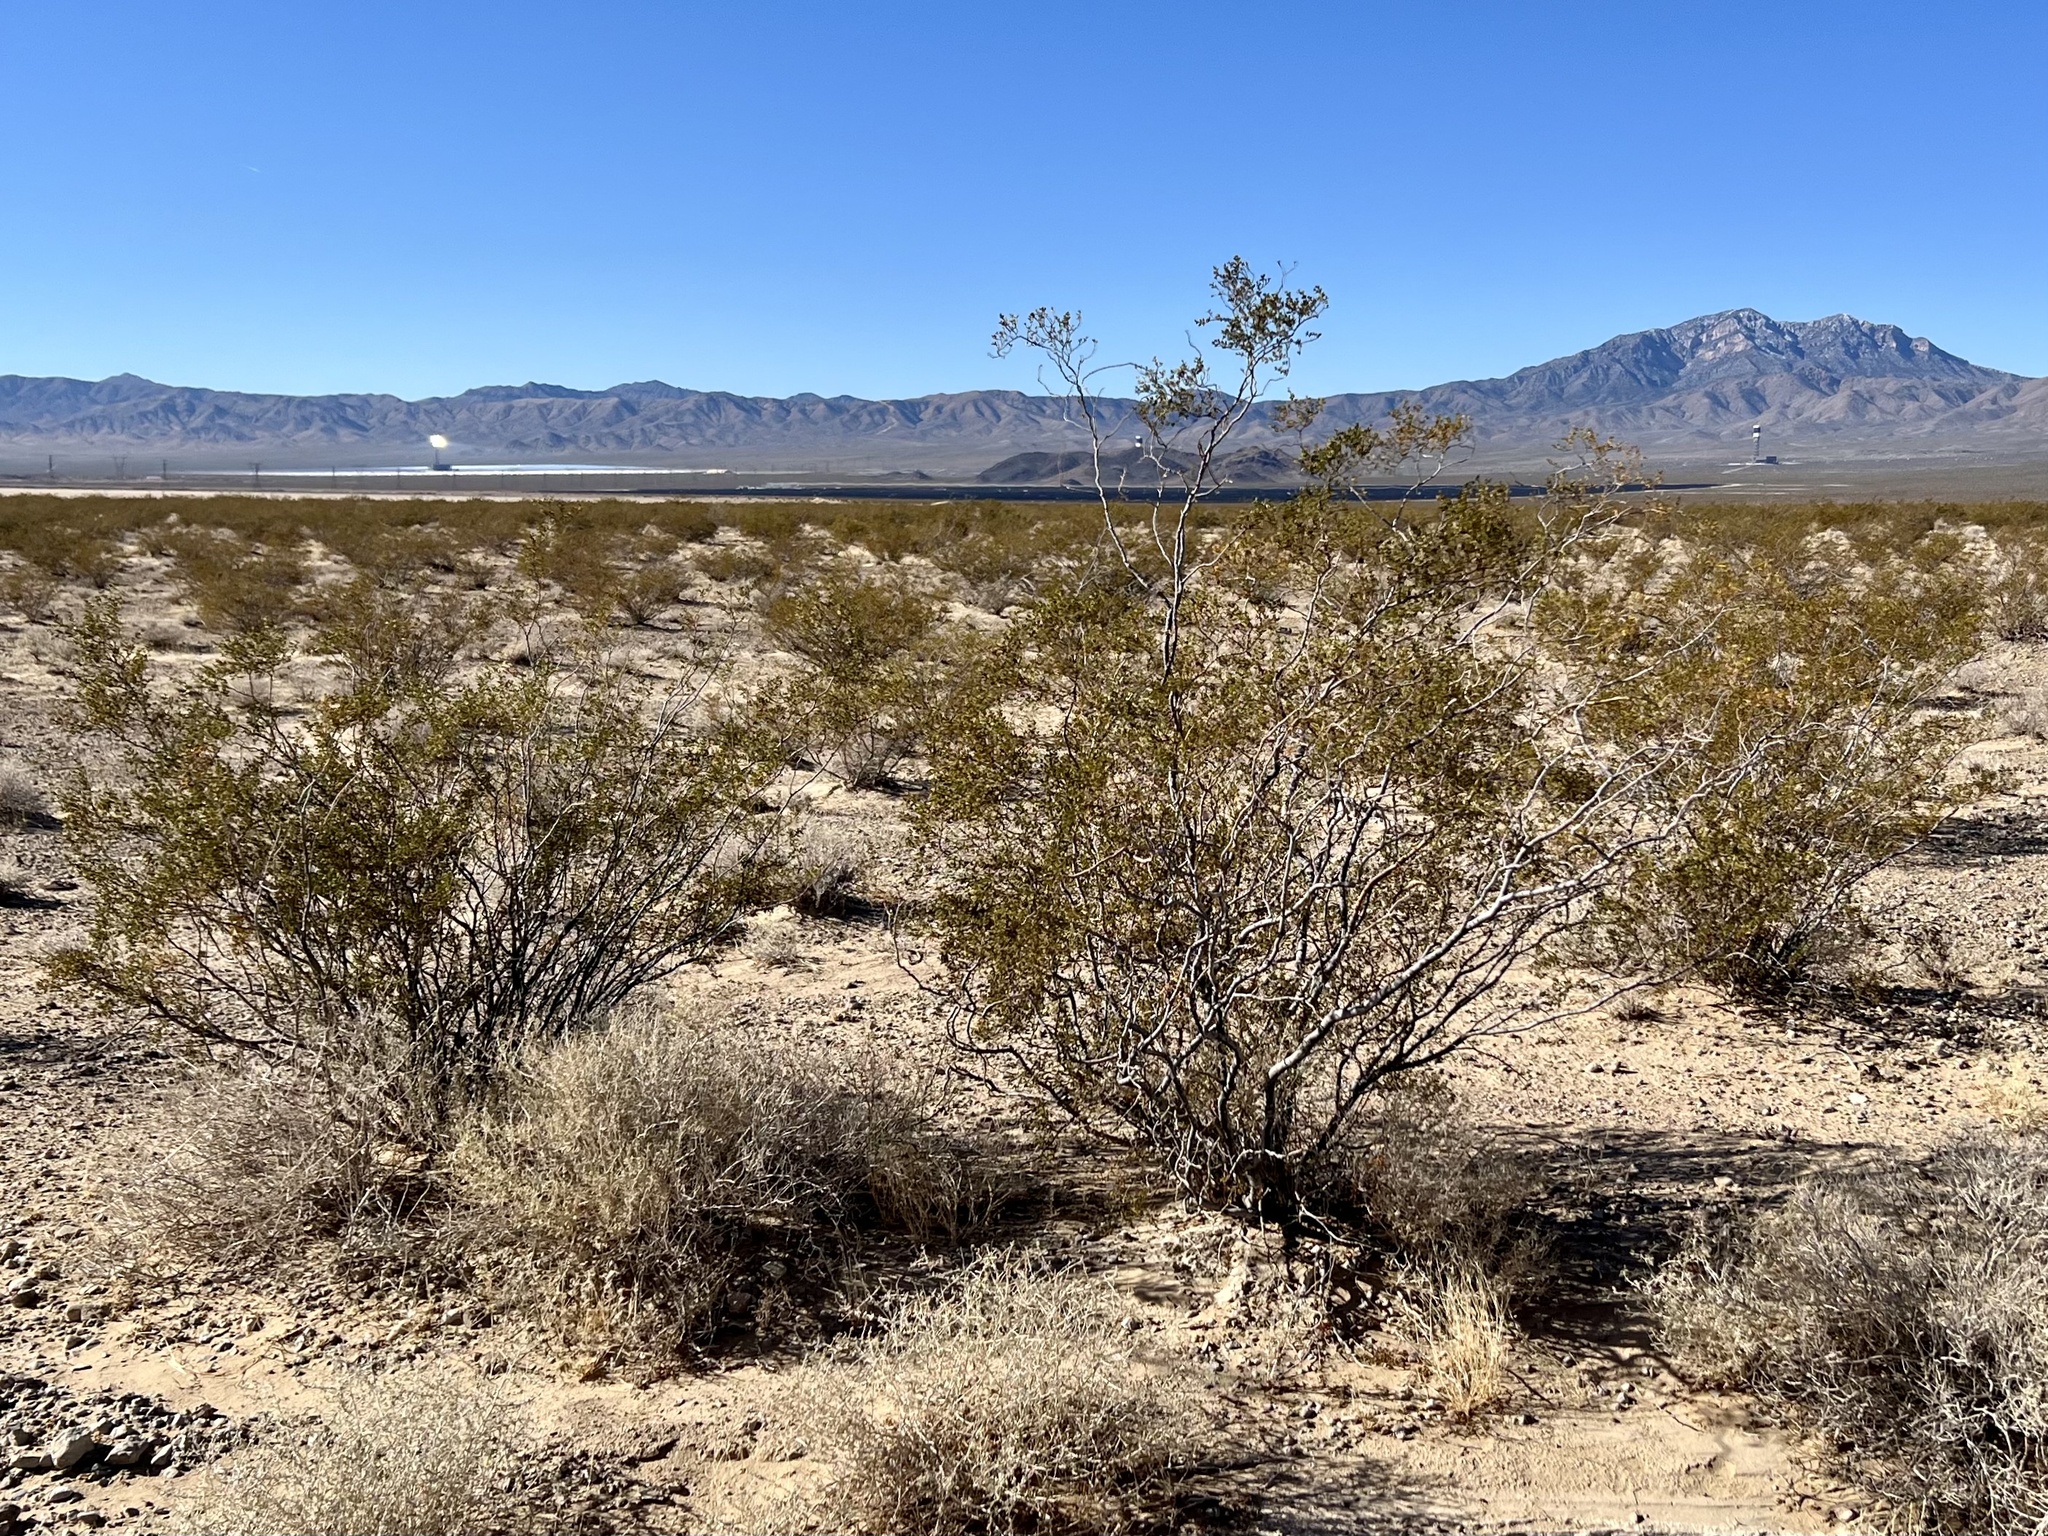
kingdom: Plantae
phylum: Tracheophyta
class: Magnoliopsida
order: Zygophyllales
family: Zygophyllaceae
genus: Larrea
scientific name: Larrea tridentata
